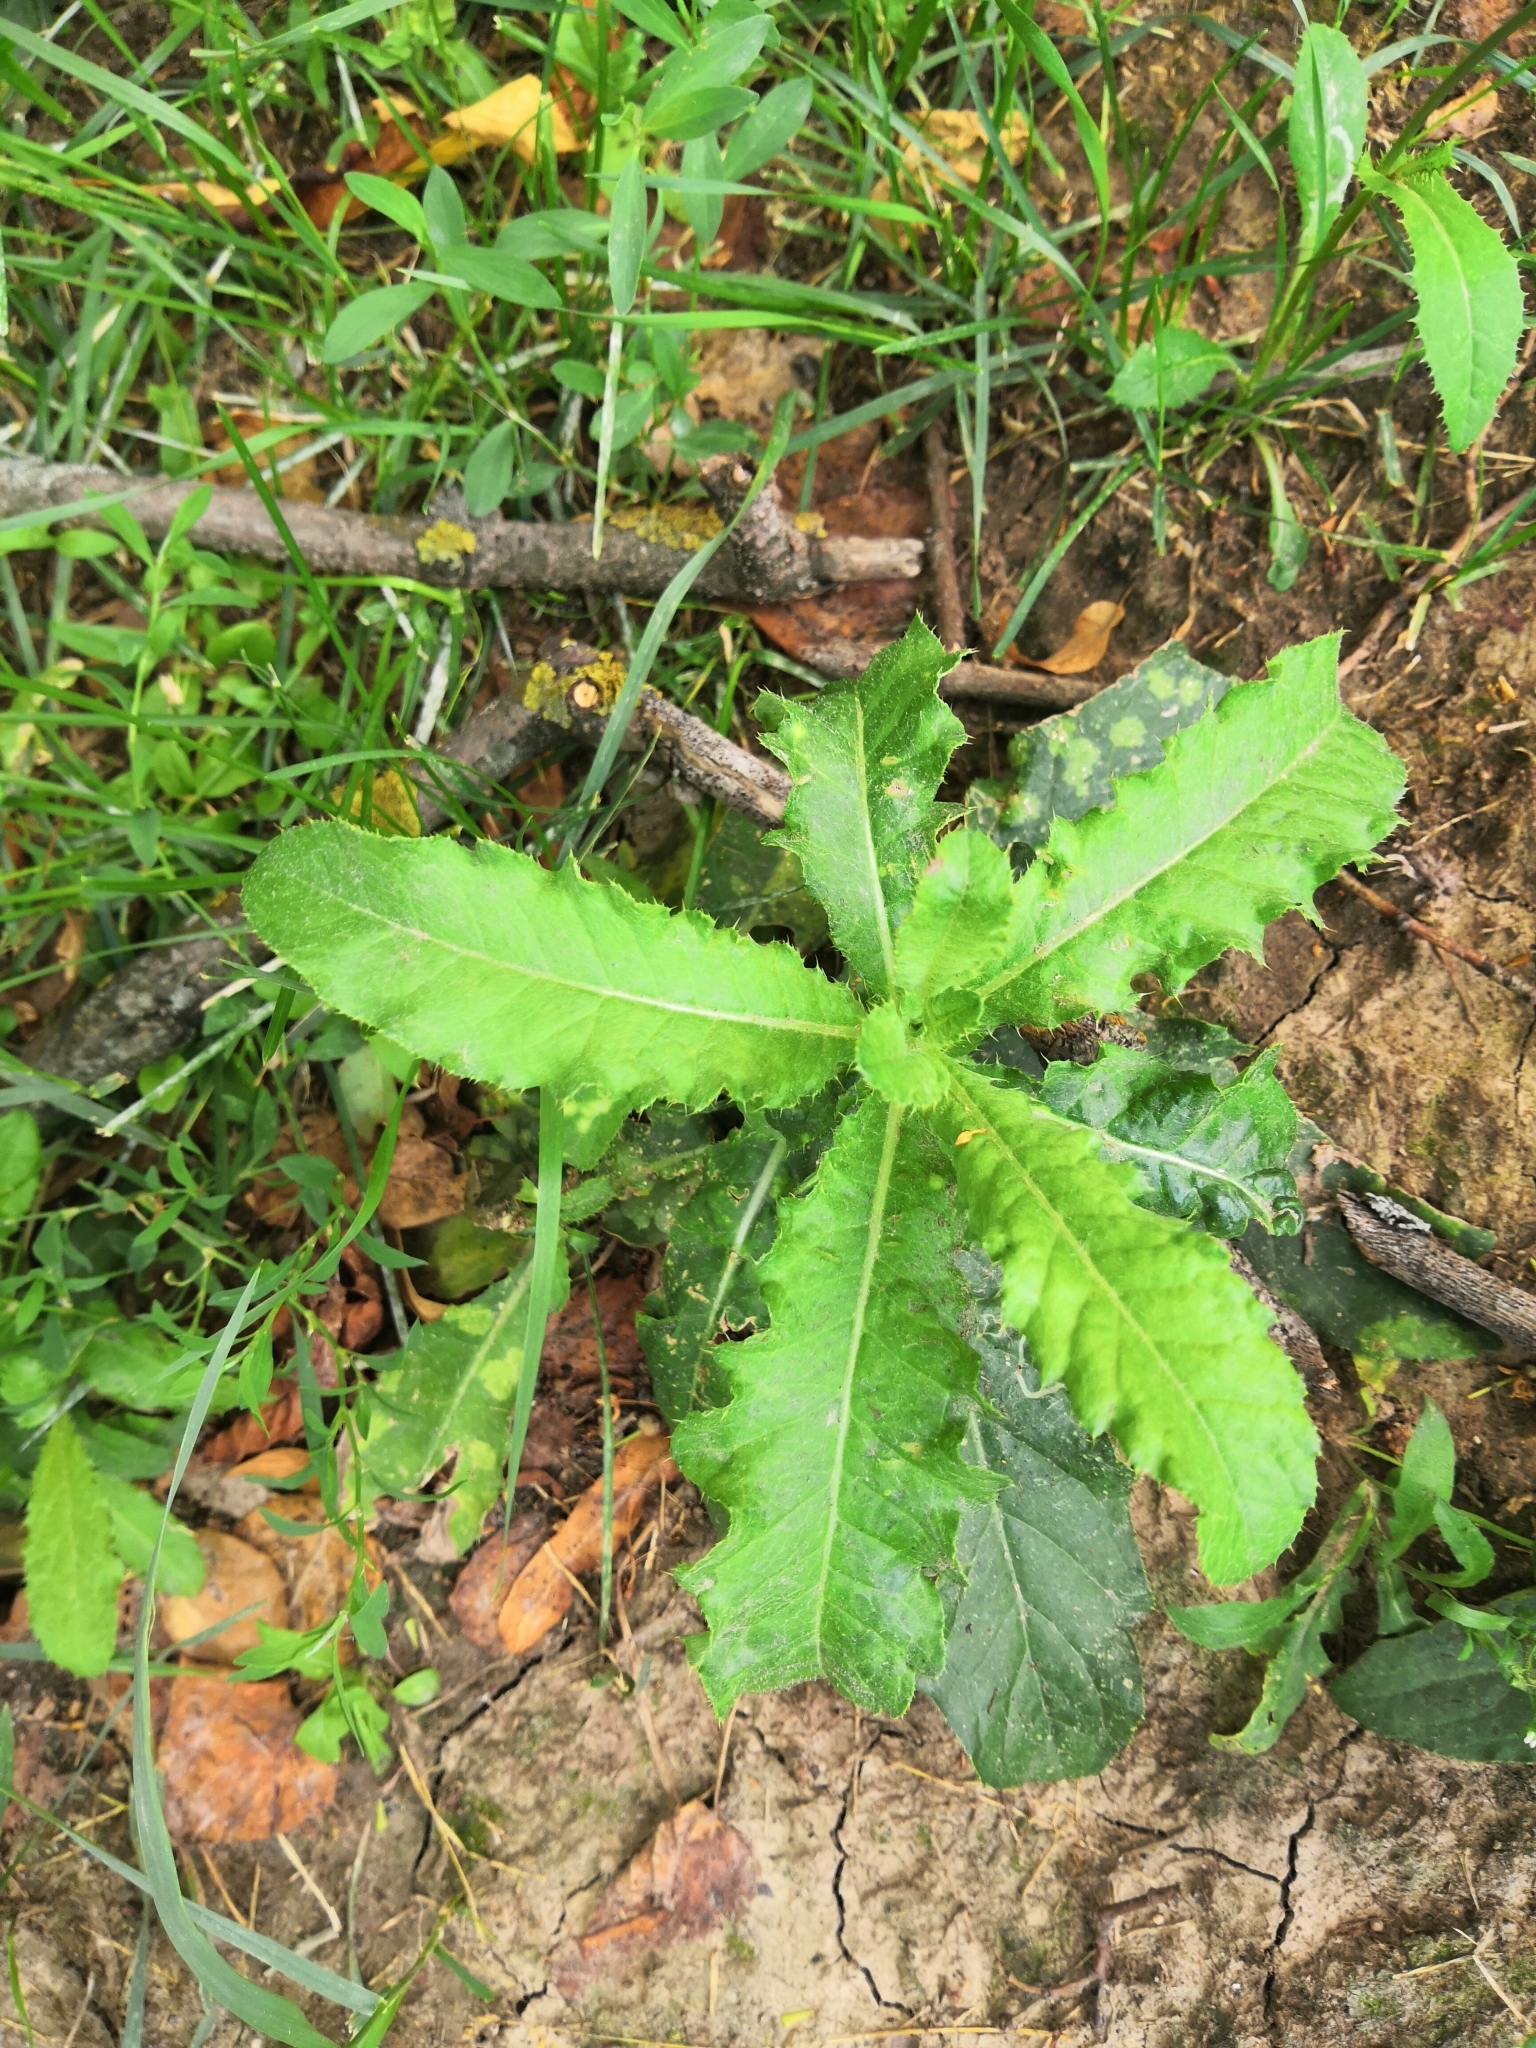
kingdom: Plantae
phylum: Tracheophyta
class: Magnoliopsida
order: Asterales
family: Asteraceae
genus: Cirsium
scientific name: Cirsium arvense
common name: Creeping thistle
